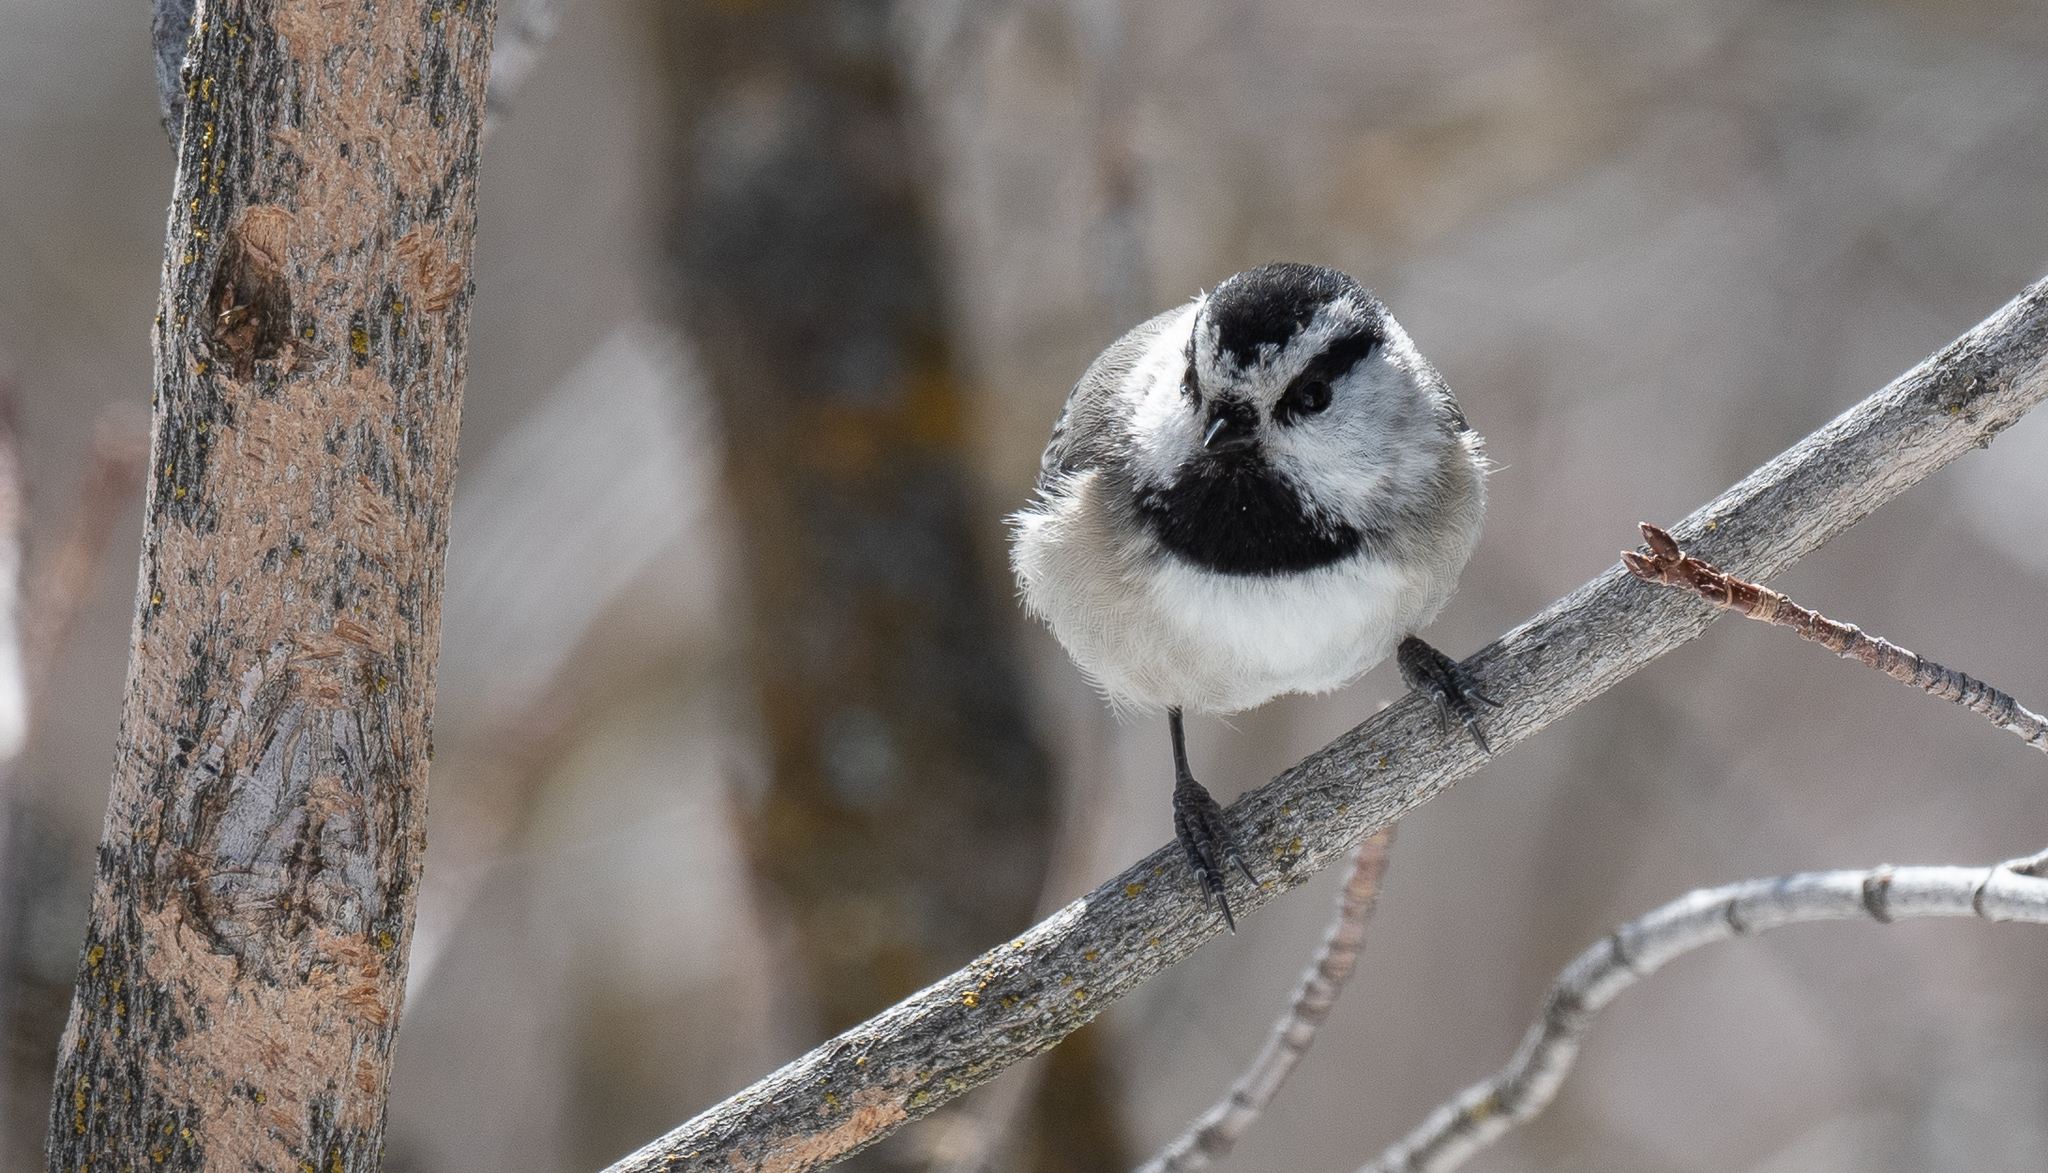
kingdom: Animalia
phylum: Chordata
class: Aves
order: Passeriformes
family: Paridae
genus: Poecile
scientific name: Poecile gambeli
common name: Mountain chickadee
